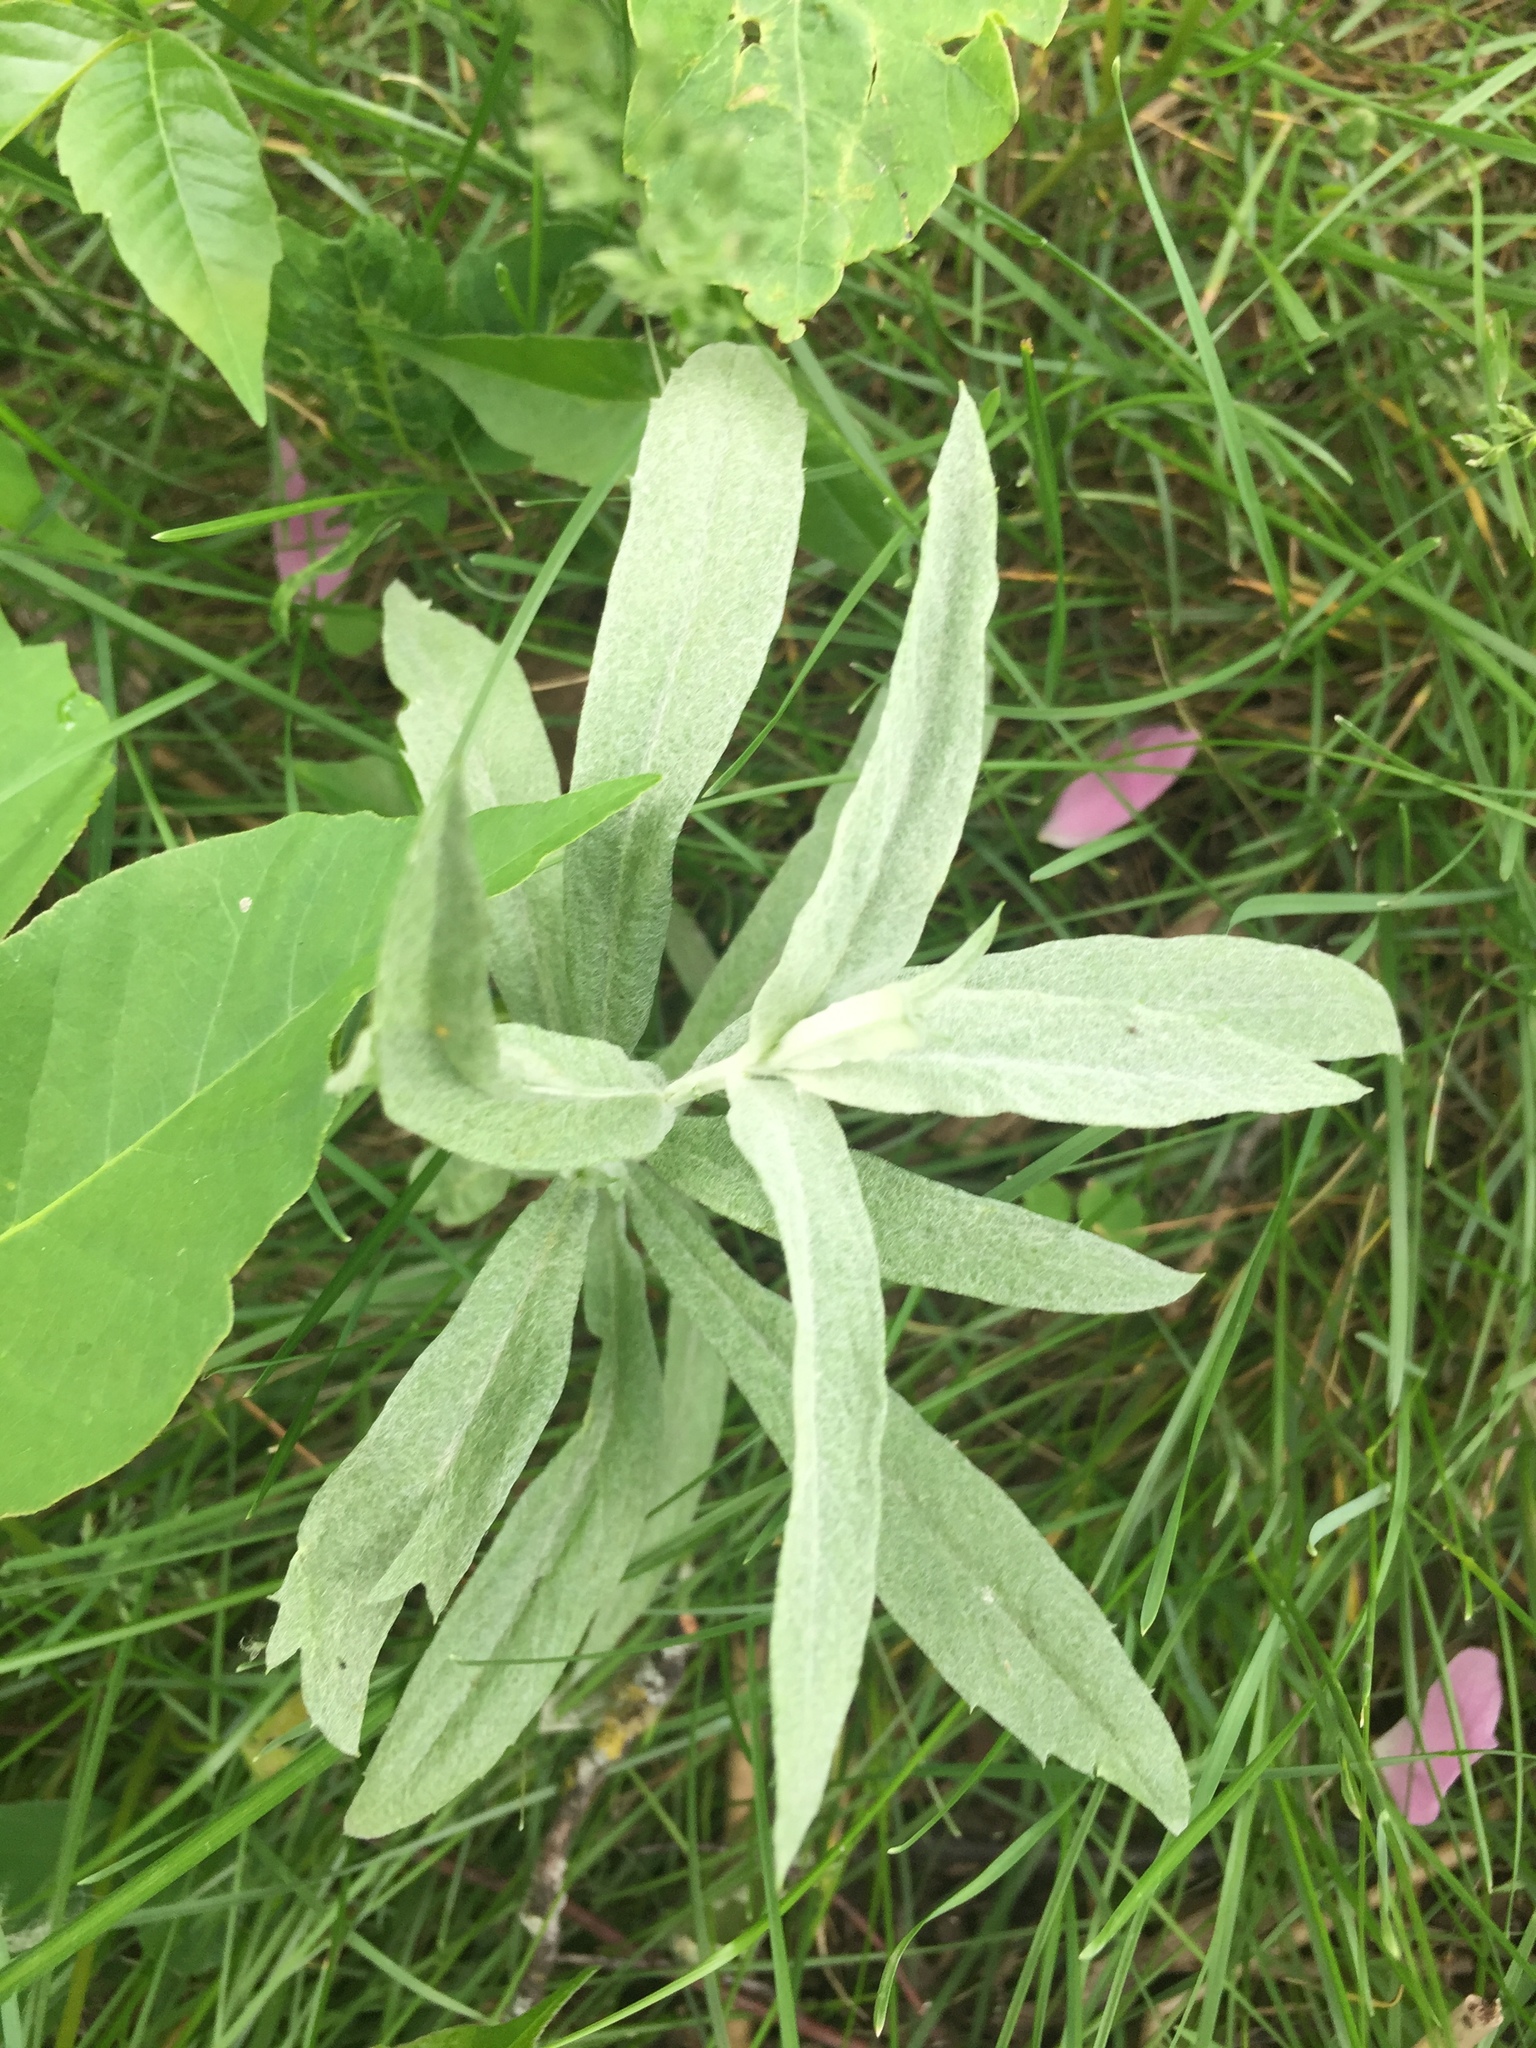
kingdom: Plantae
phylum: Tracheophyta
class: Magnoliopsida
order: Asterales
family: Asteraceae
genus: Artemisia
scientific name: Artemisia ludoviciana
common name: Western mugwort
